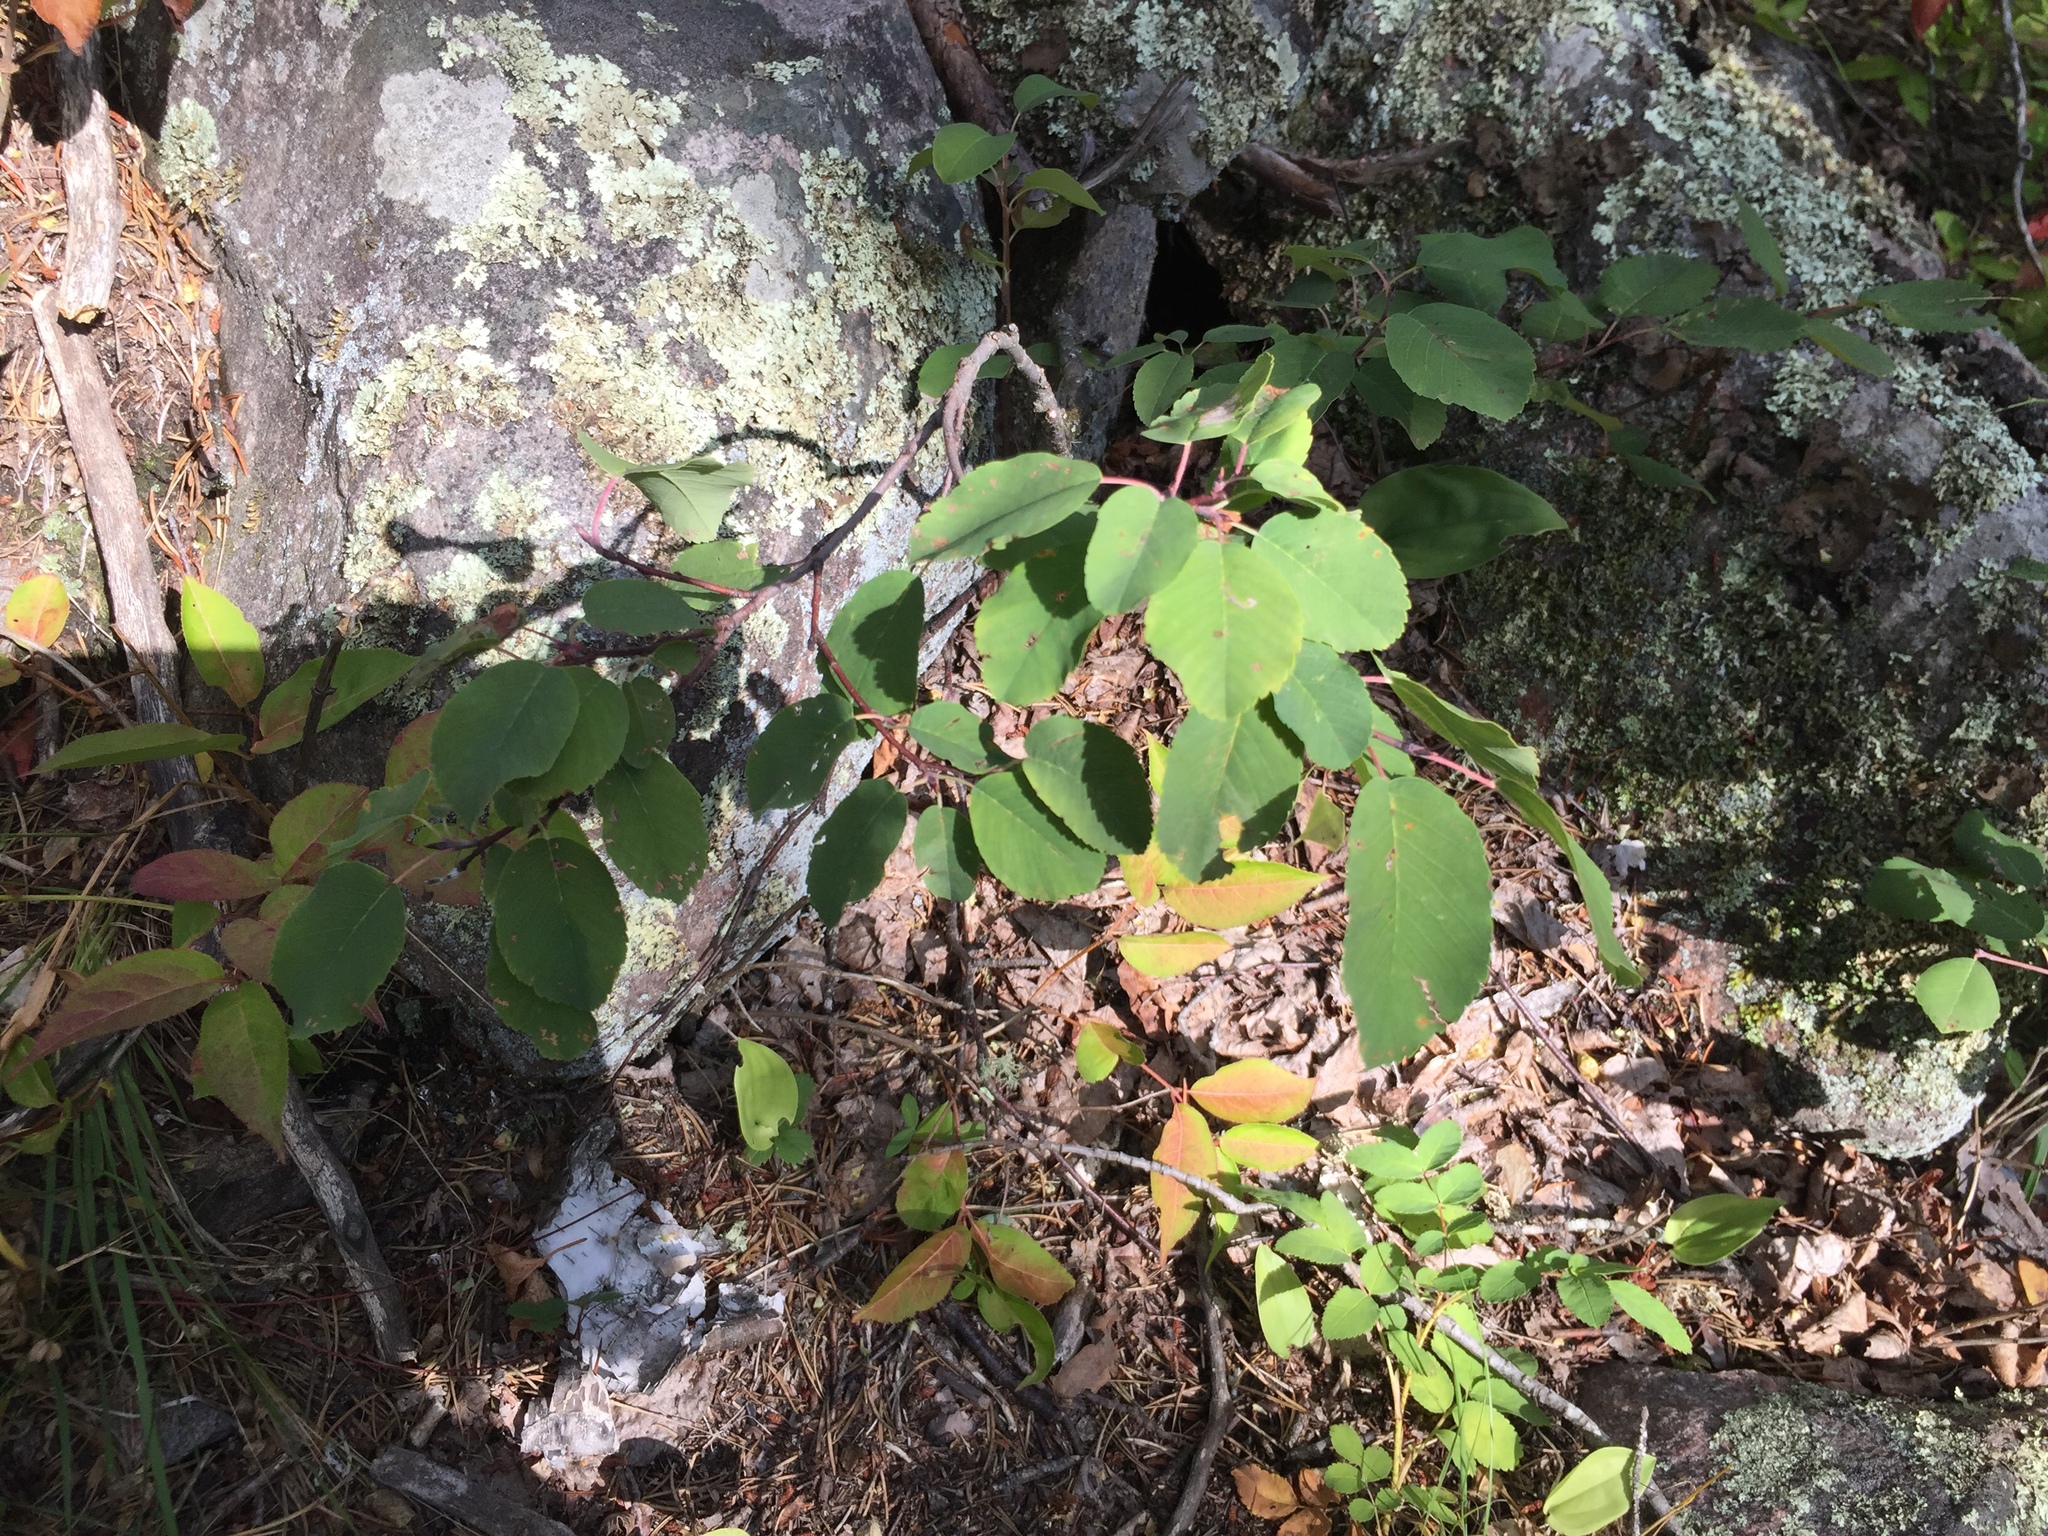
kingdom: Plantae
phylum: Tracheophyta
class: Magnoliopsida
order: Rosales
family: Rosaceae
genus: Amelanchier
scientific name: Amelanchier alnifolia
